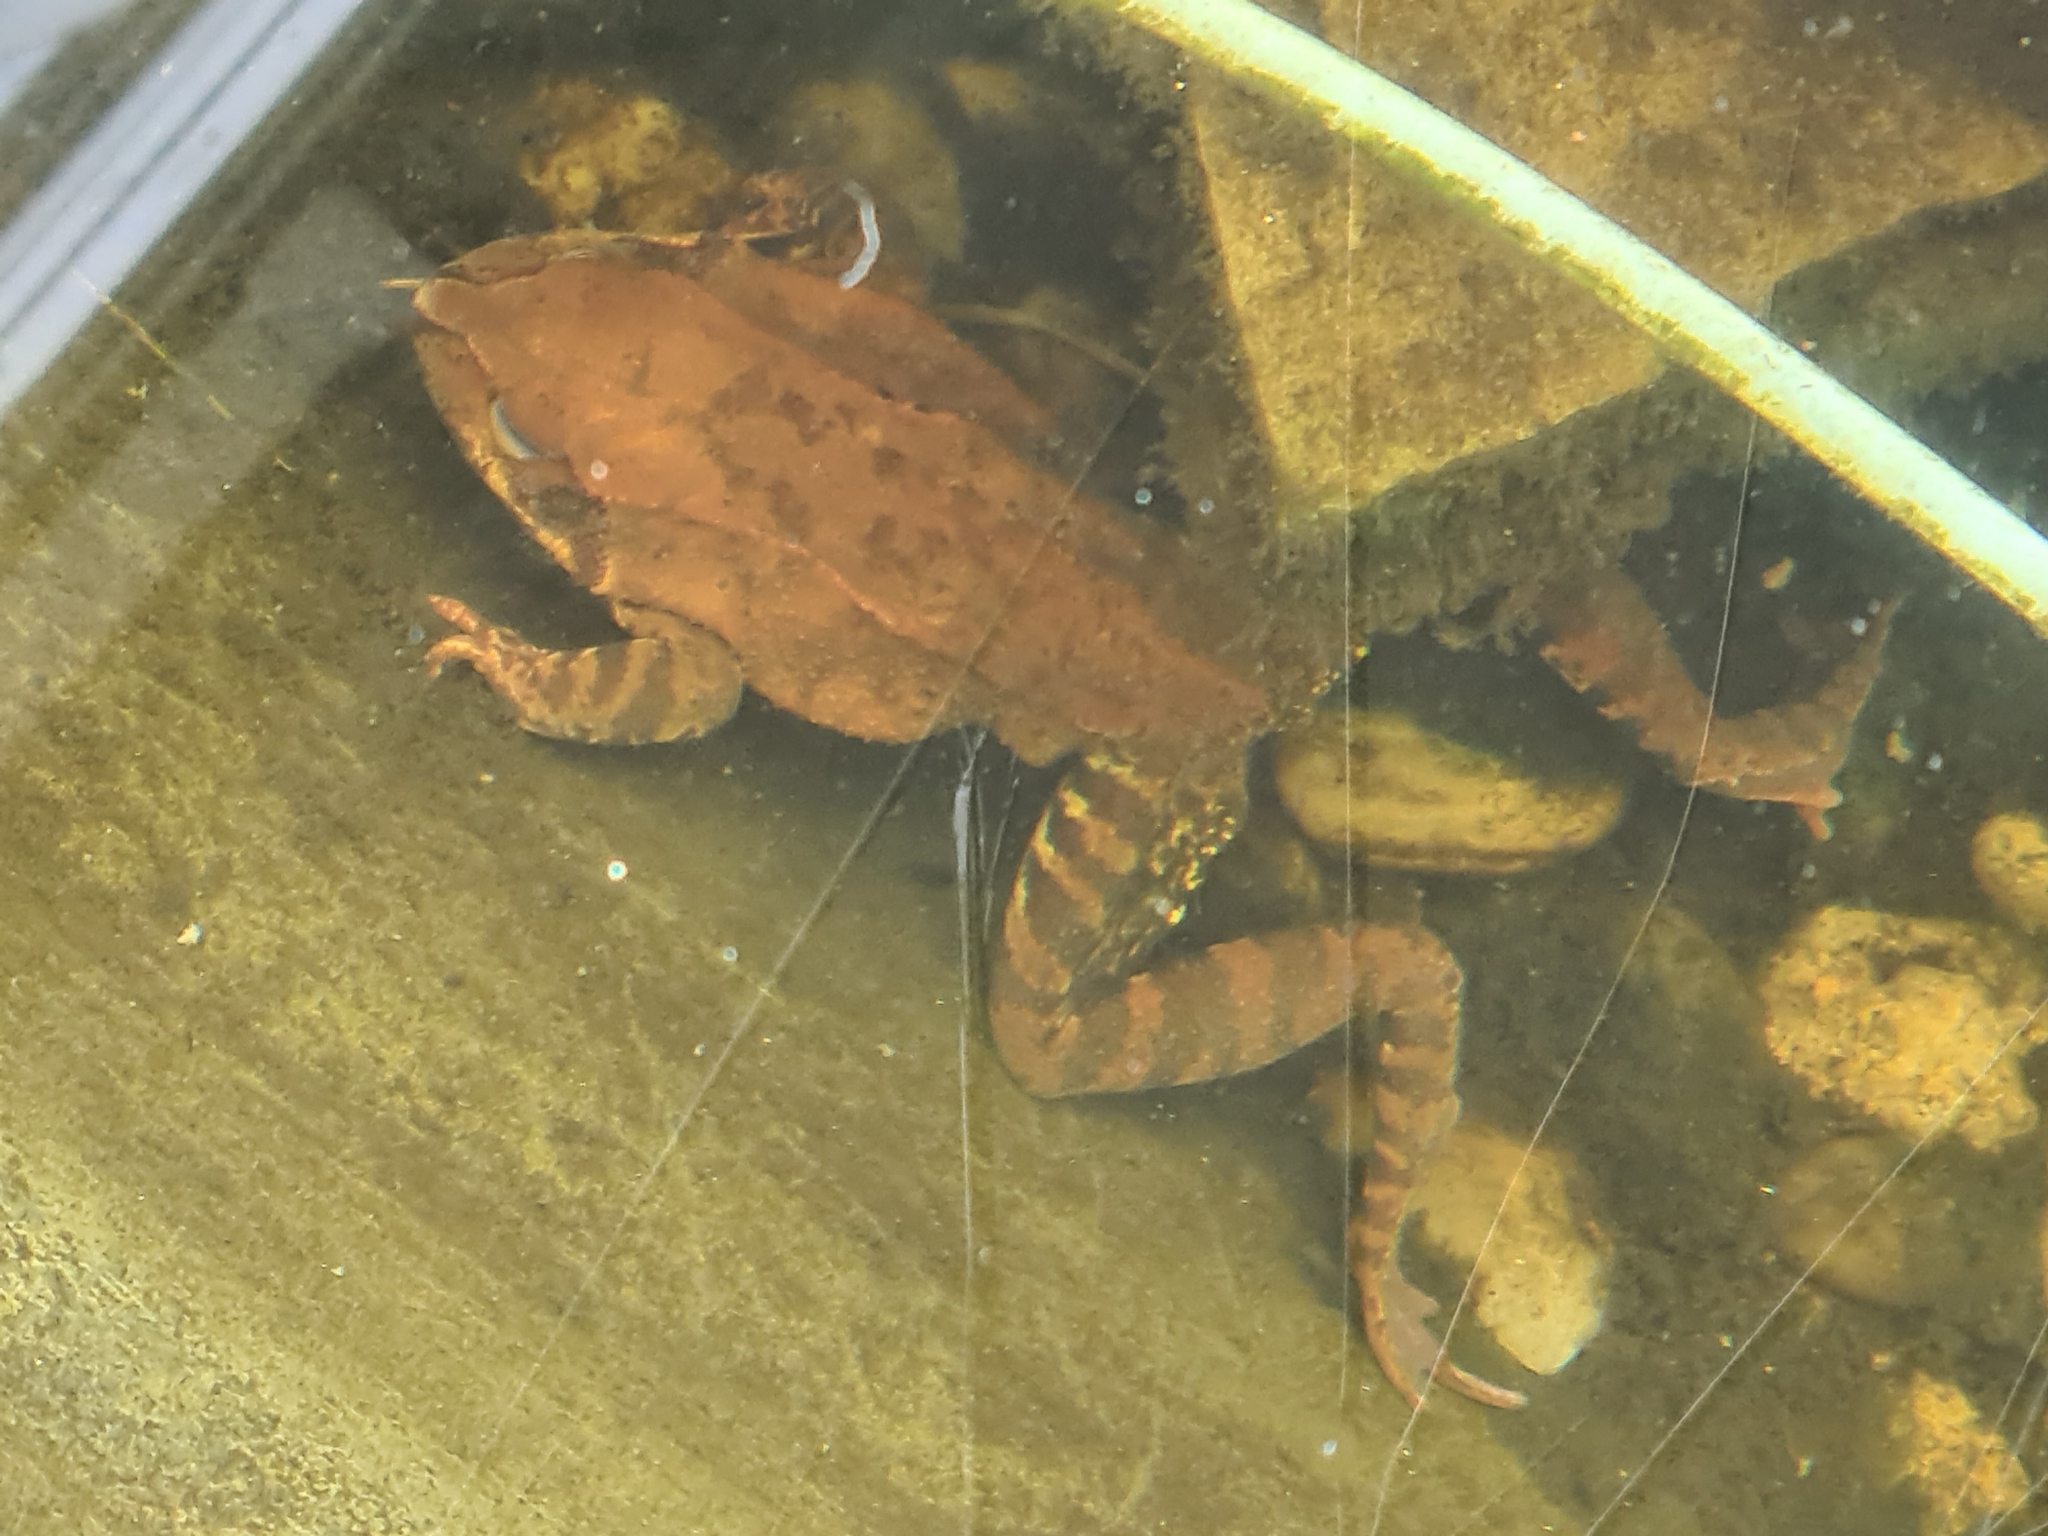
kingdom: Animalia
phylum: Chordata
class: Amphibia
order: Anura
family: Ranidae
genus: Rana
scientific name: Rana temporaria
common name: Common frog
